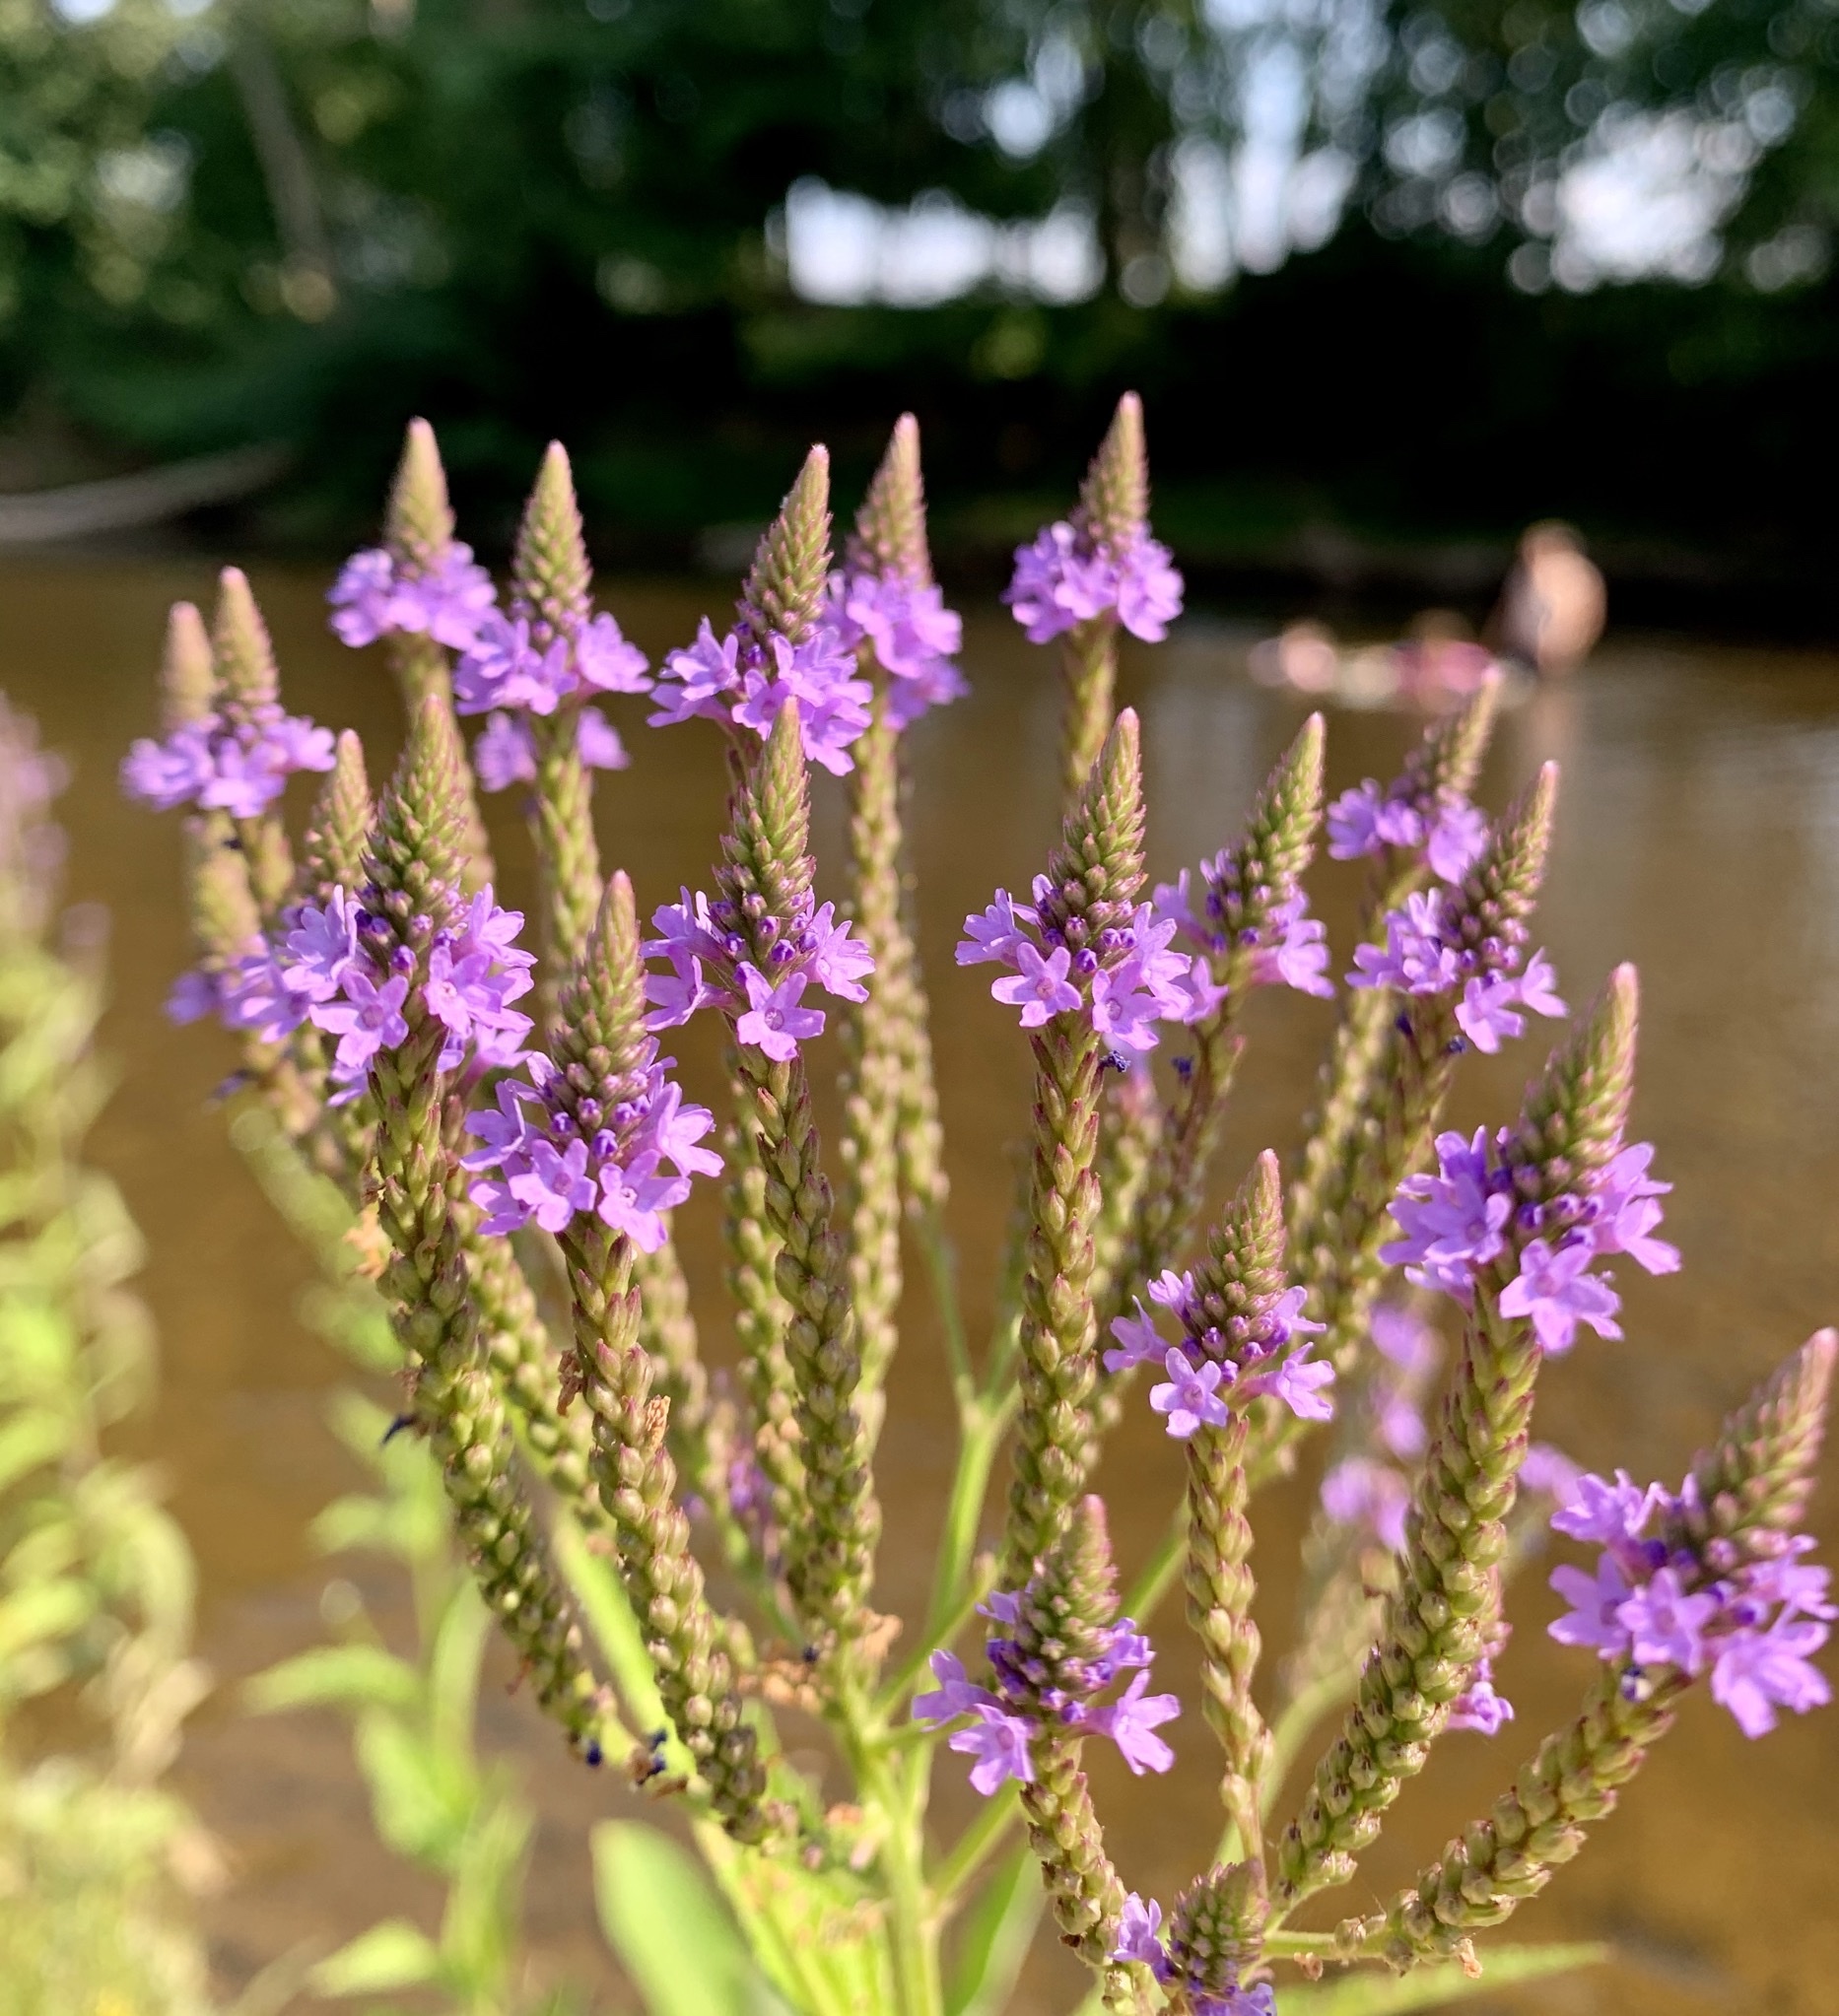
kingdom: Plantae
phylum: Tracheophyta
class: Magnoliopsida
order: Lamiales
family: Verbenaceae
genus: Verbena
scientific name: Verbena hastata
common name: American blue vervain
